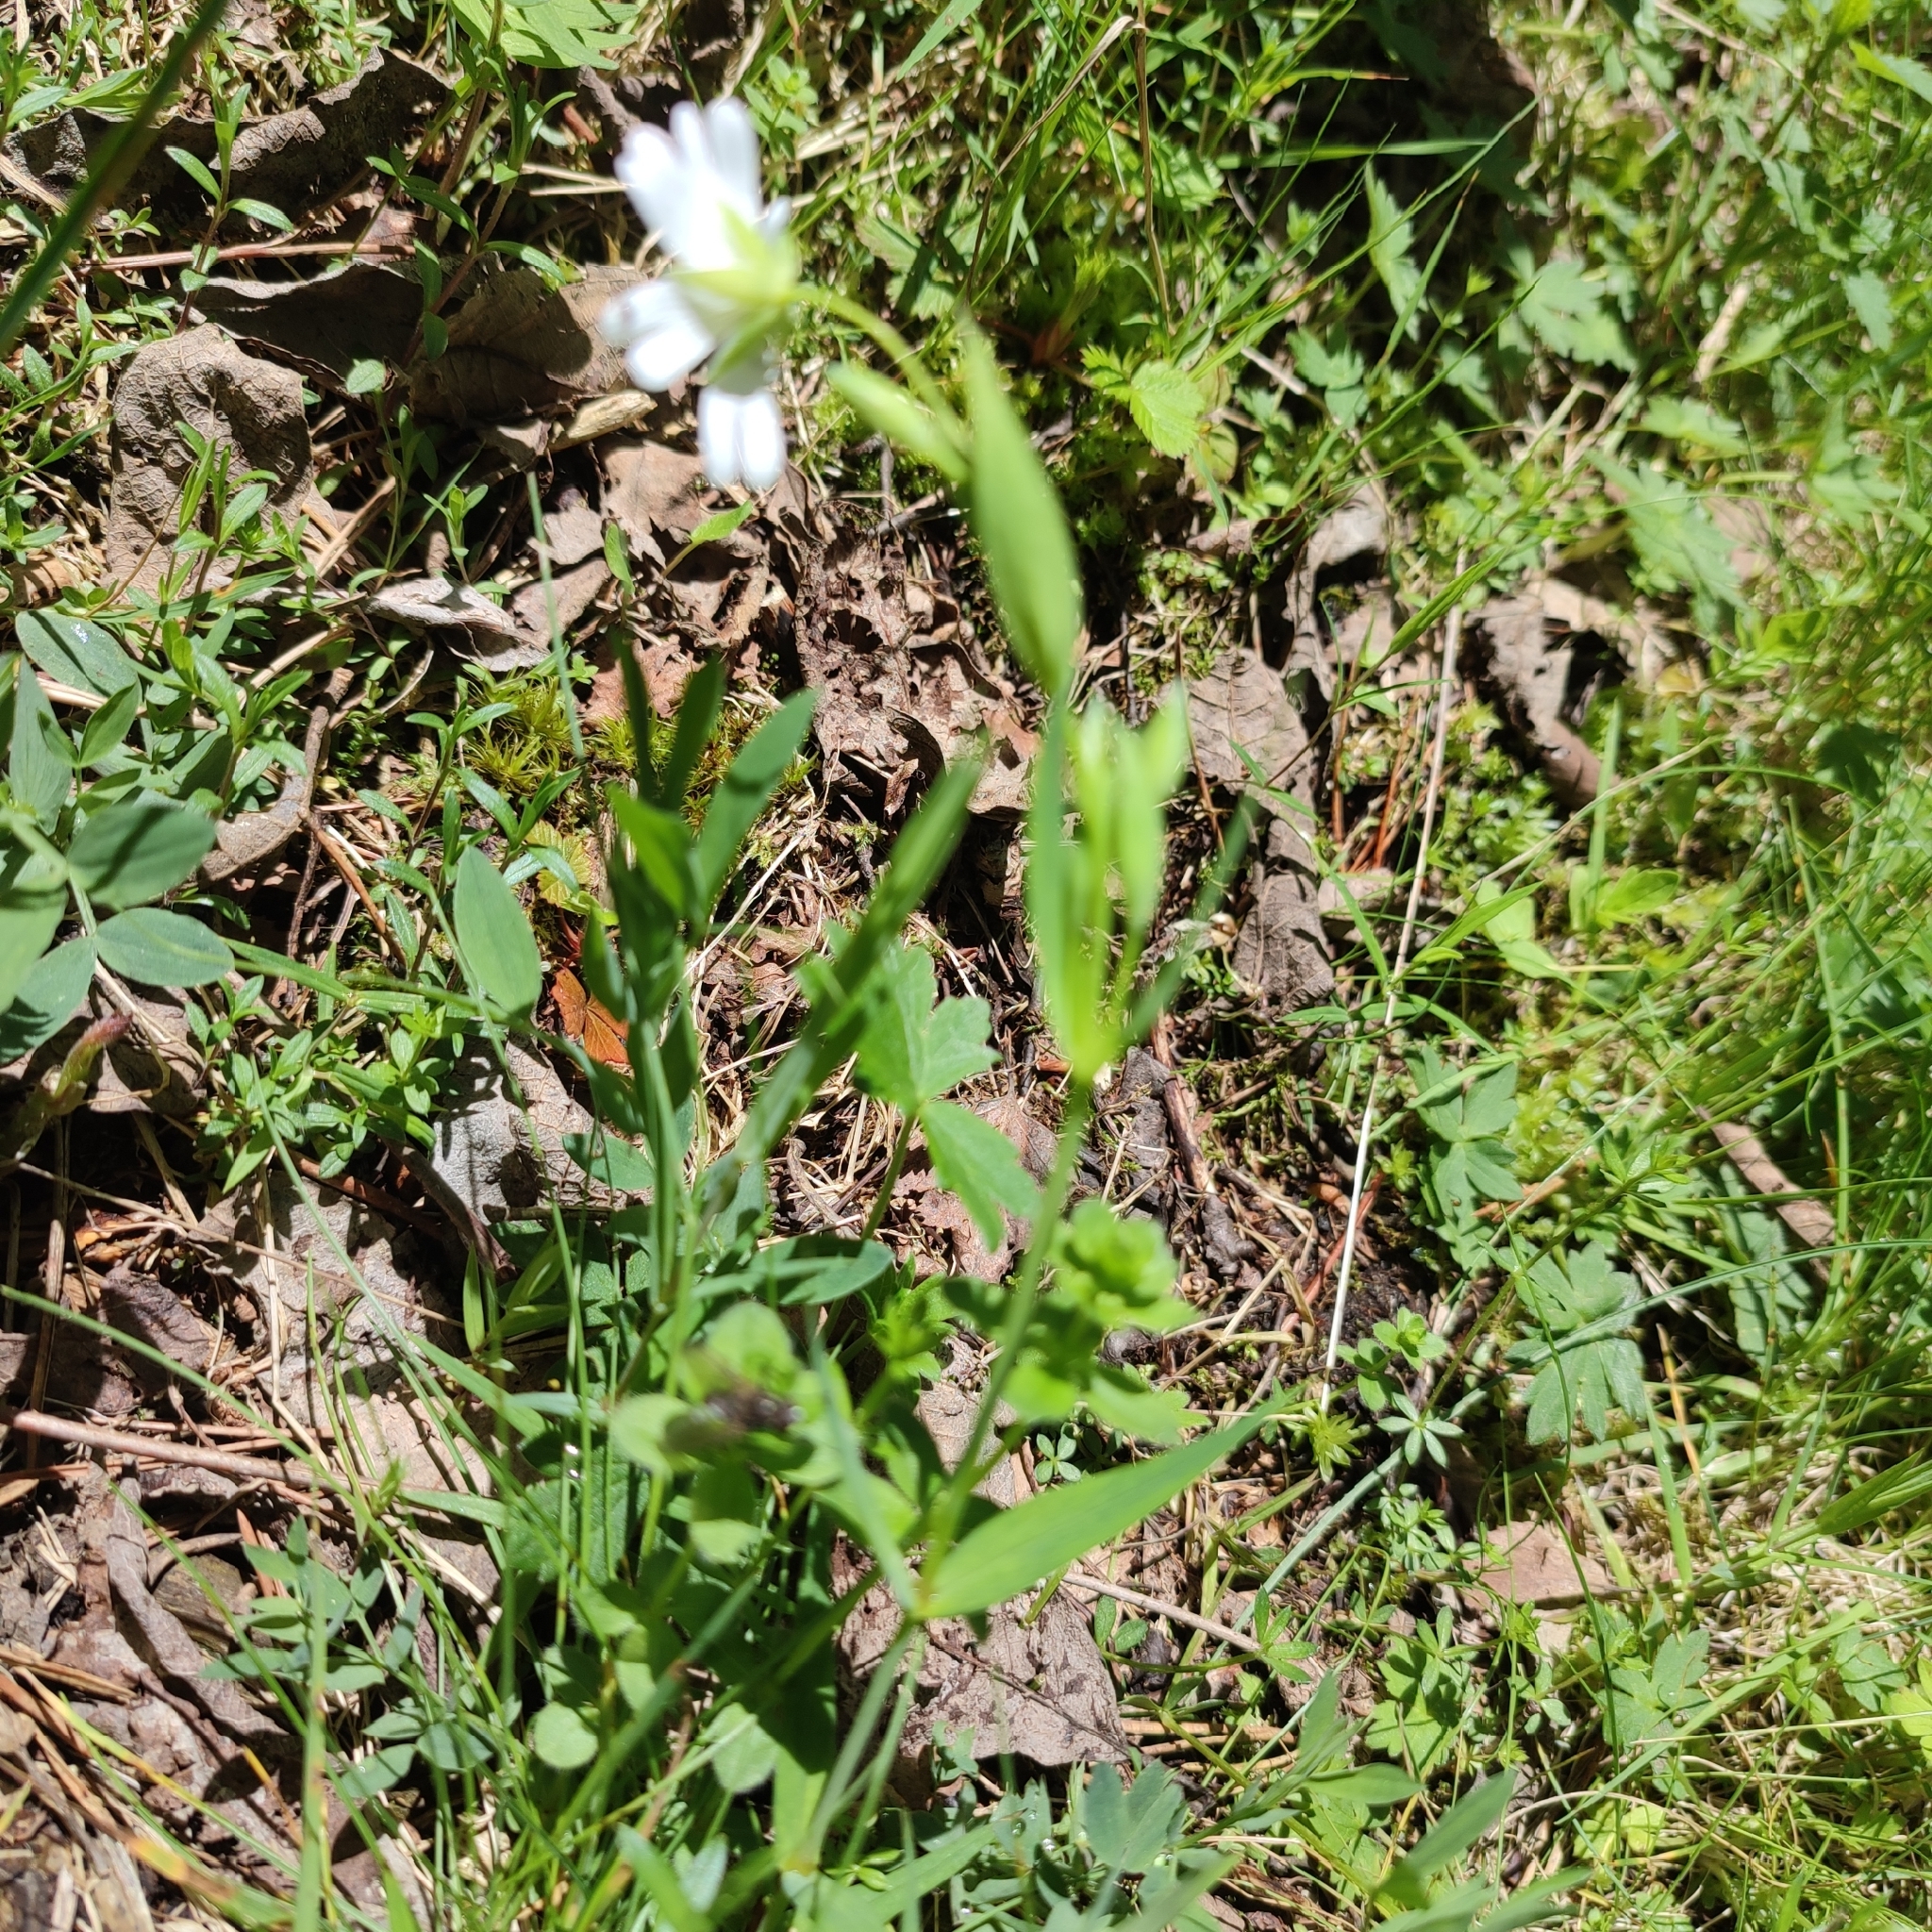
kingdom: Plantae
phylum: Tracheophyta
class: Magnoliopsida
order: Caryophyllales
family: Caryophyllaceae
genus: Rabelera
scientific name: Rabelera holostea
